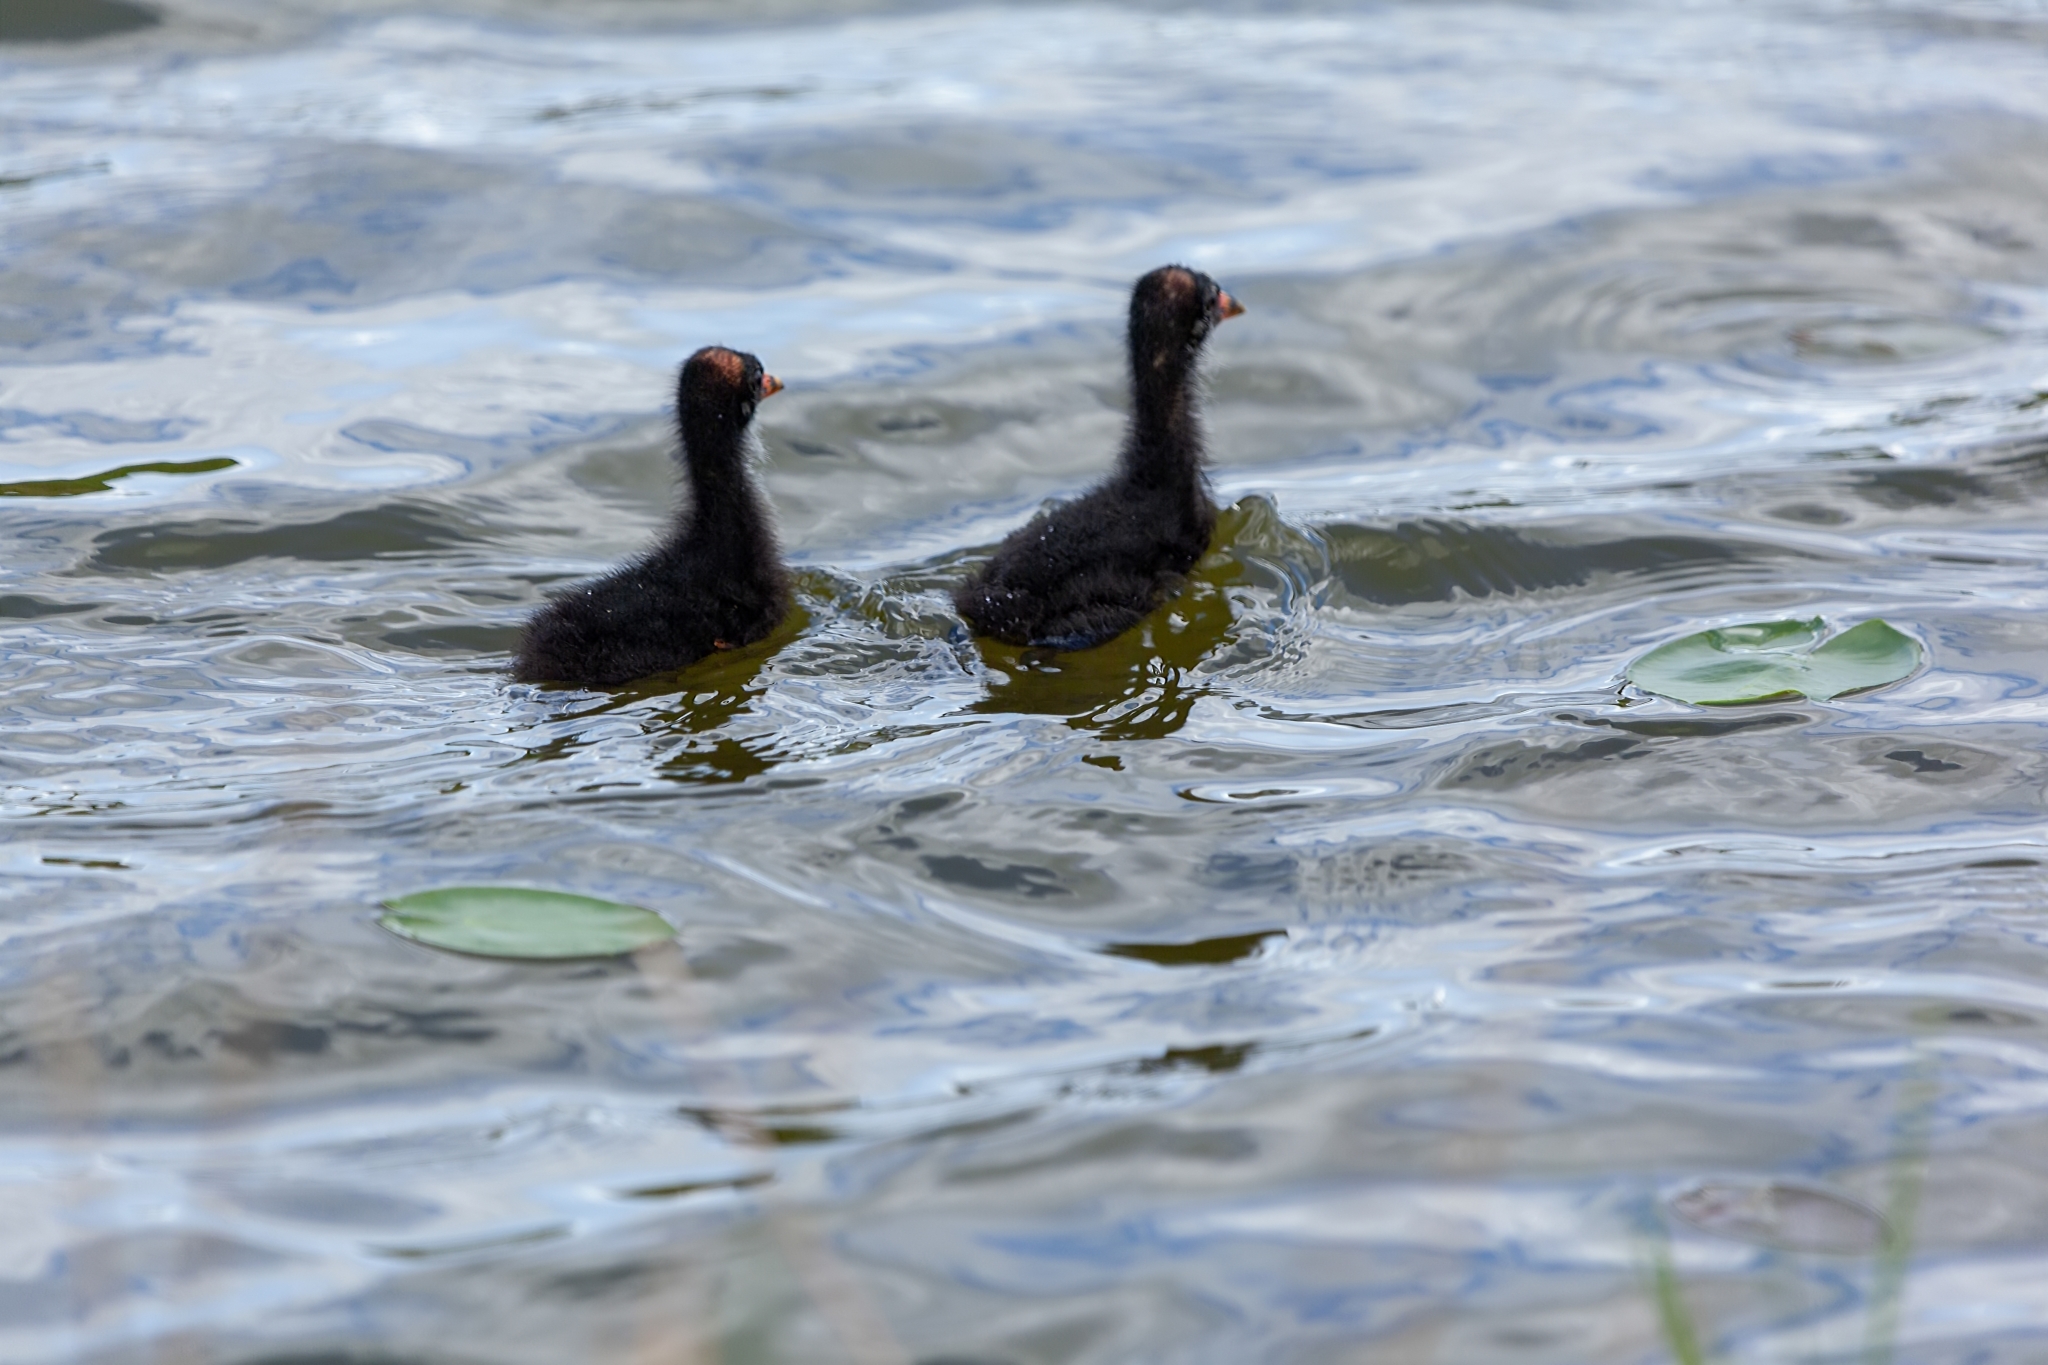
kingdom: Animalia
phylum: Chordata
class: Aves
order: Gruiformes
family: Rallidae
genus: Gallinula
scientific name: Gallinula chloropus
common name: Common moorhen
